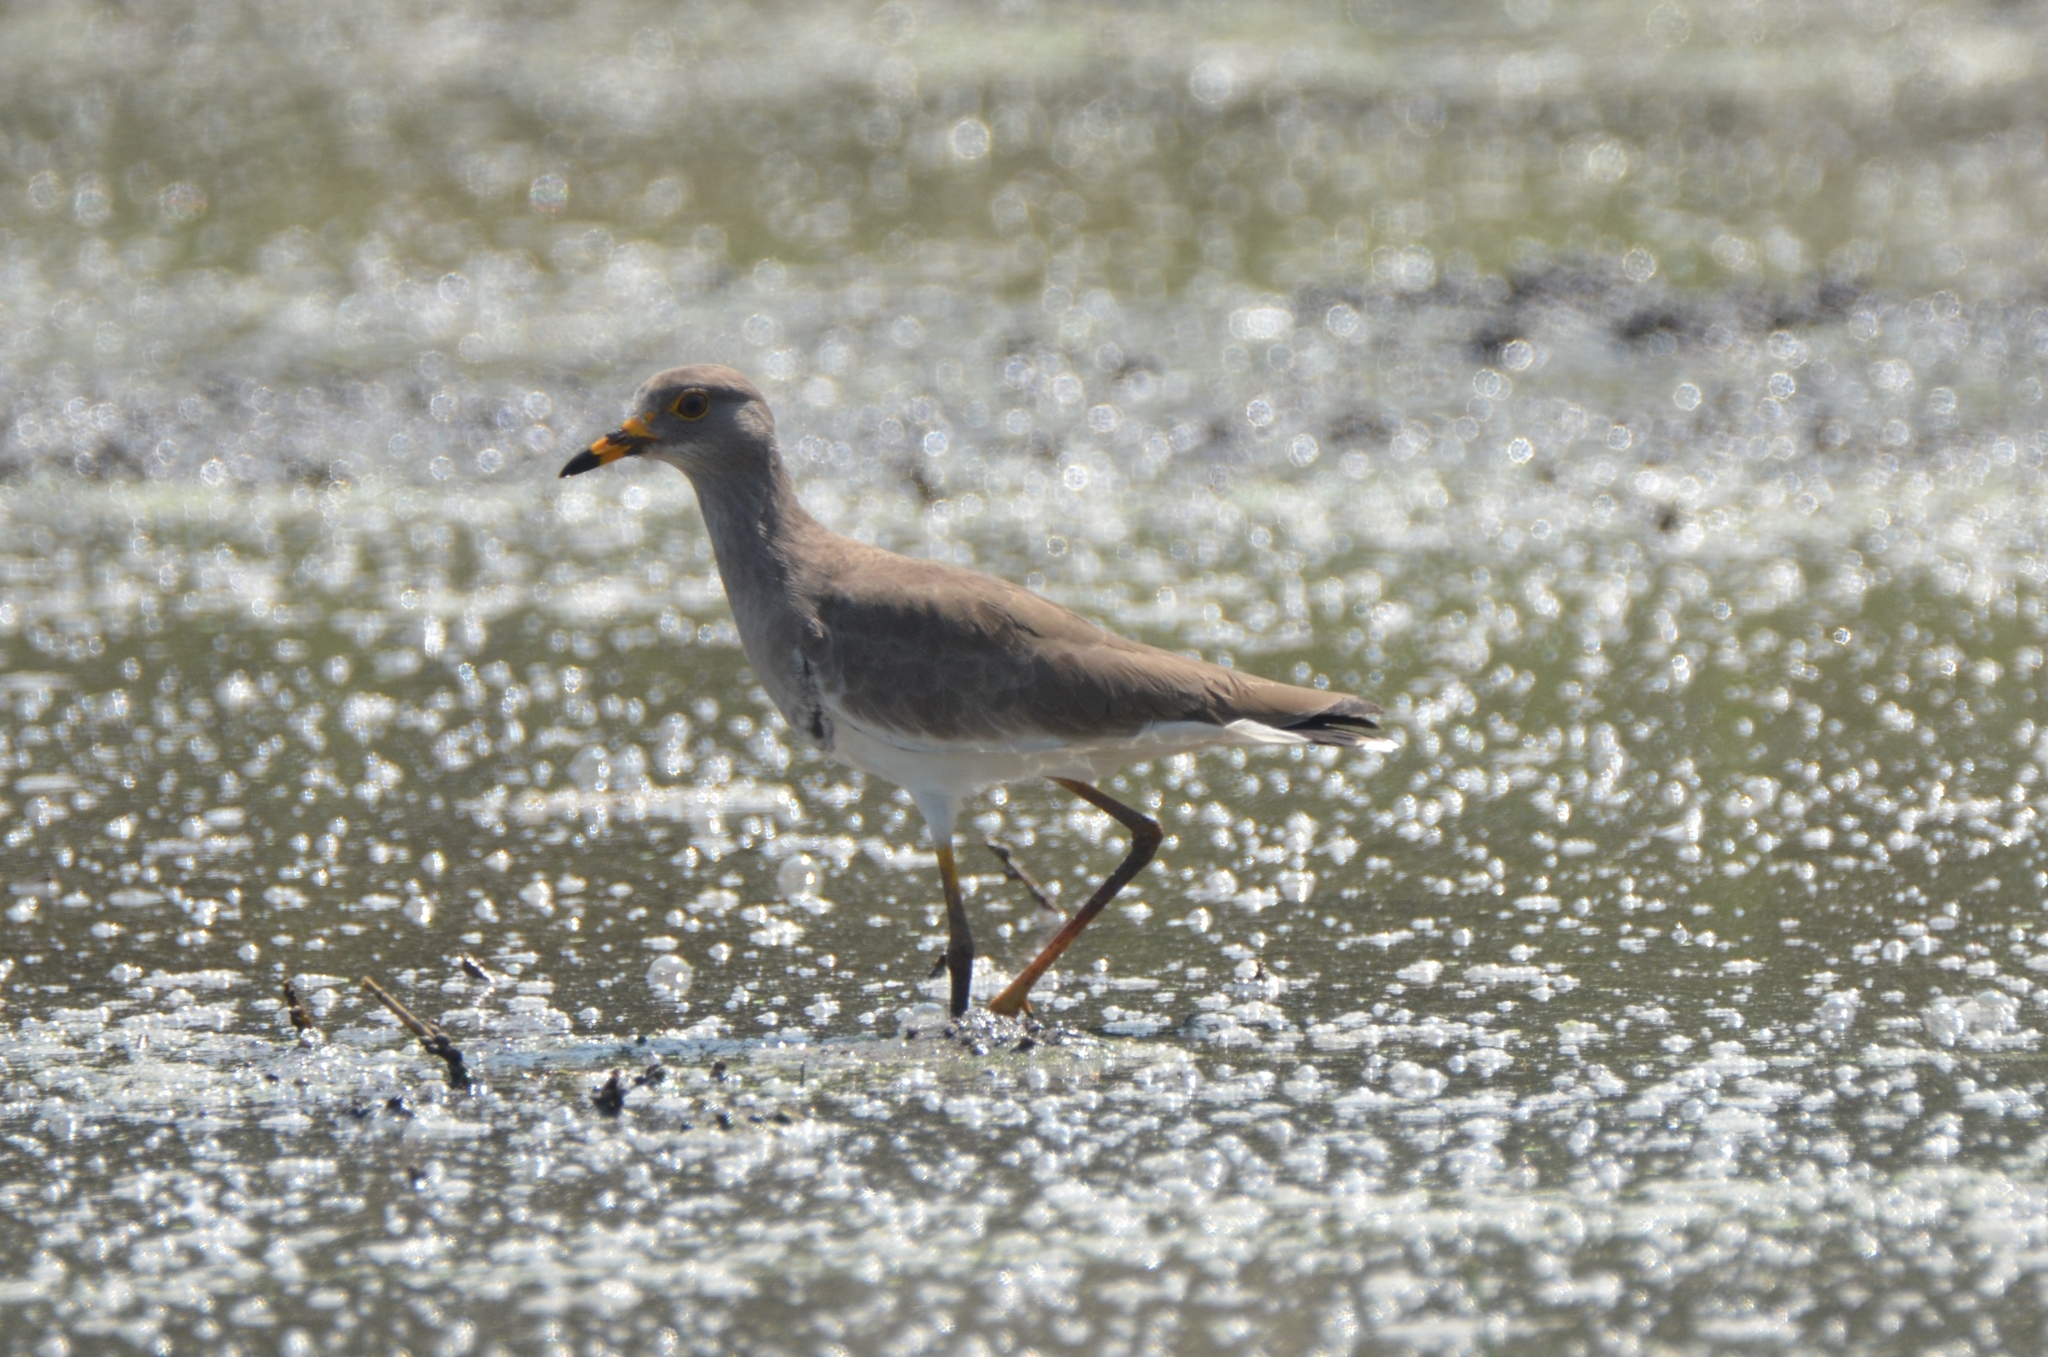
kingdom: Animalia
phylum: Chordata
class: Aves
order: Charadriiformes
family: Charadriidae
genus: Vanellus
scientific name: Vanellus cinereus
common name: Grey-headed lapwing
